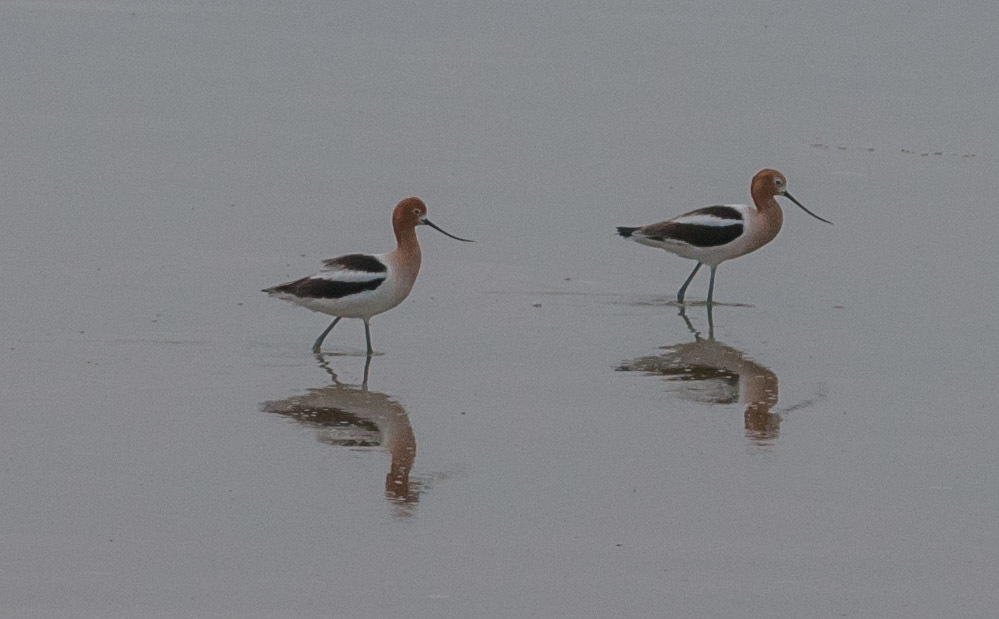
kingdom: Animalia
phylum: Chordata
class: Aves
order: Charadriiformes
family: Recurvirostridae
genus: Recurvirostra
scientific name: Recurvirostra americana
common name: American avocet
